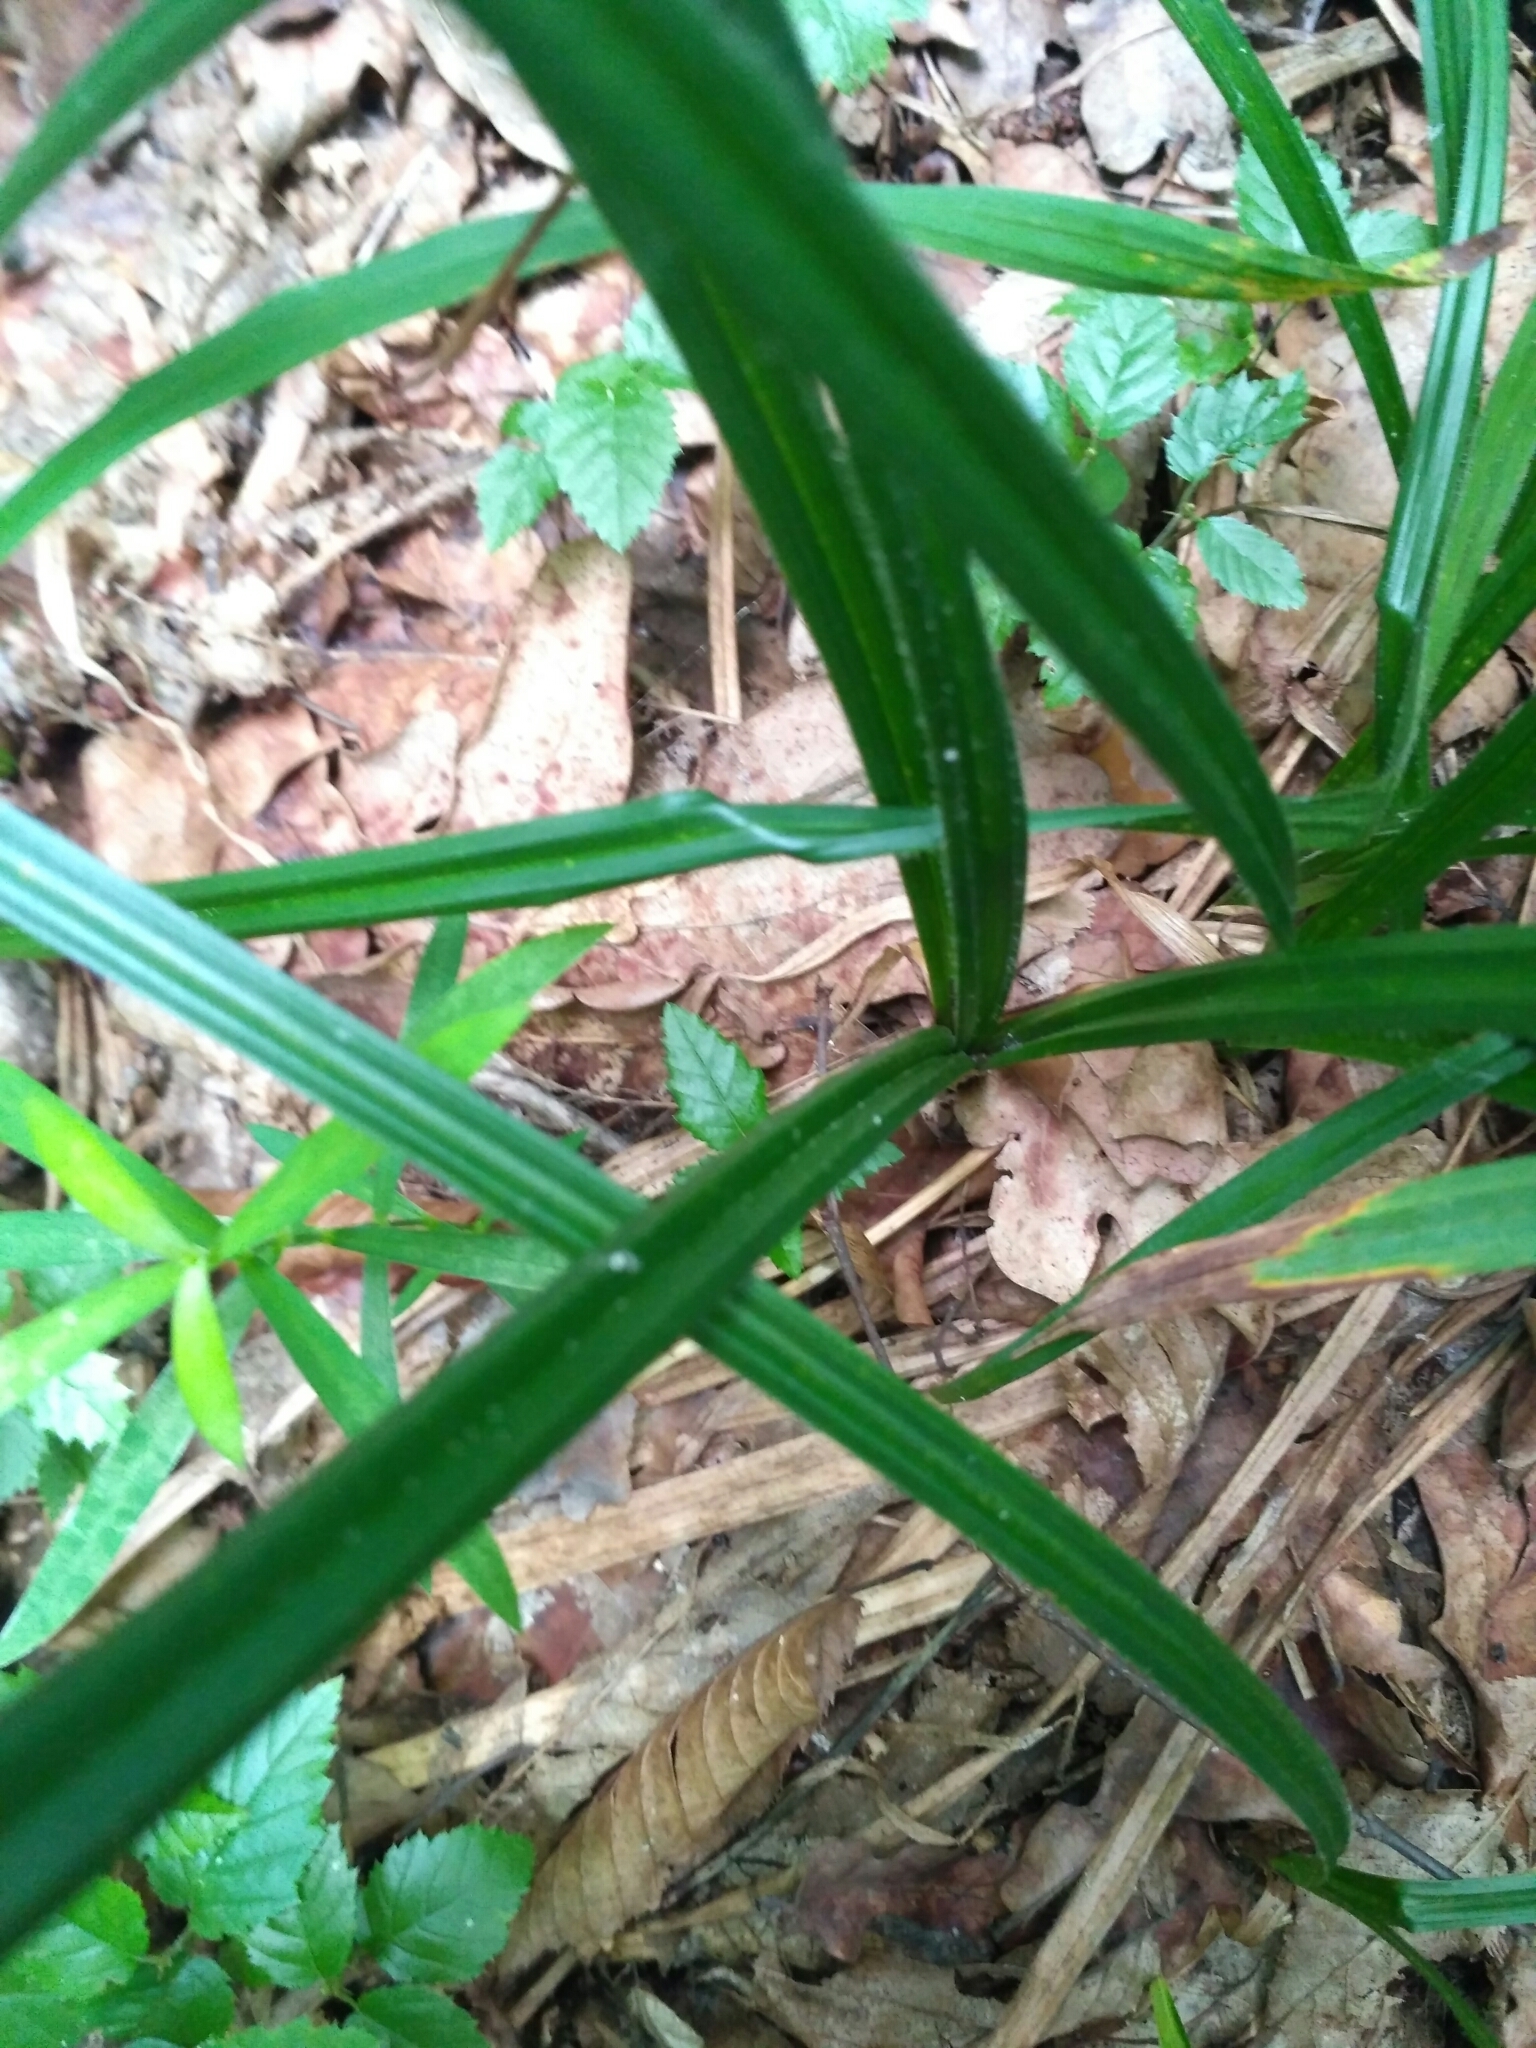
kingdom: Plantae
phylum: Tracheophyta
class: Liliopsida
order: Poales
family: Cyperaceae
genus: Carex
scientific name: Carex pilosa
